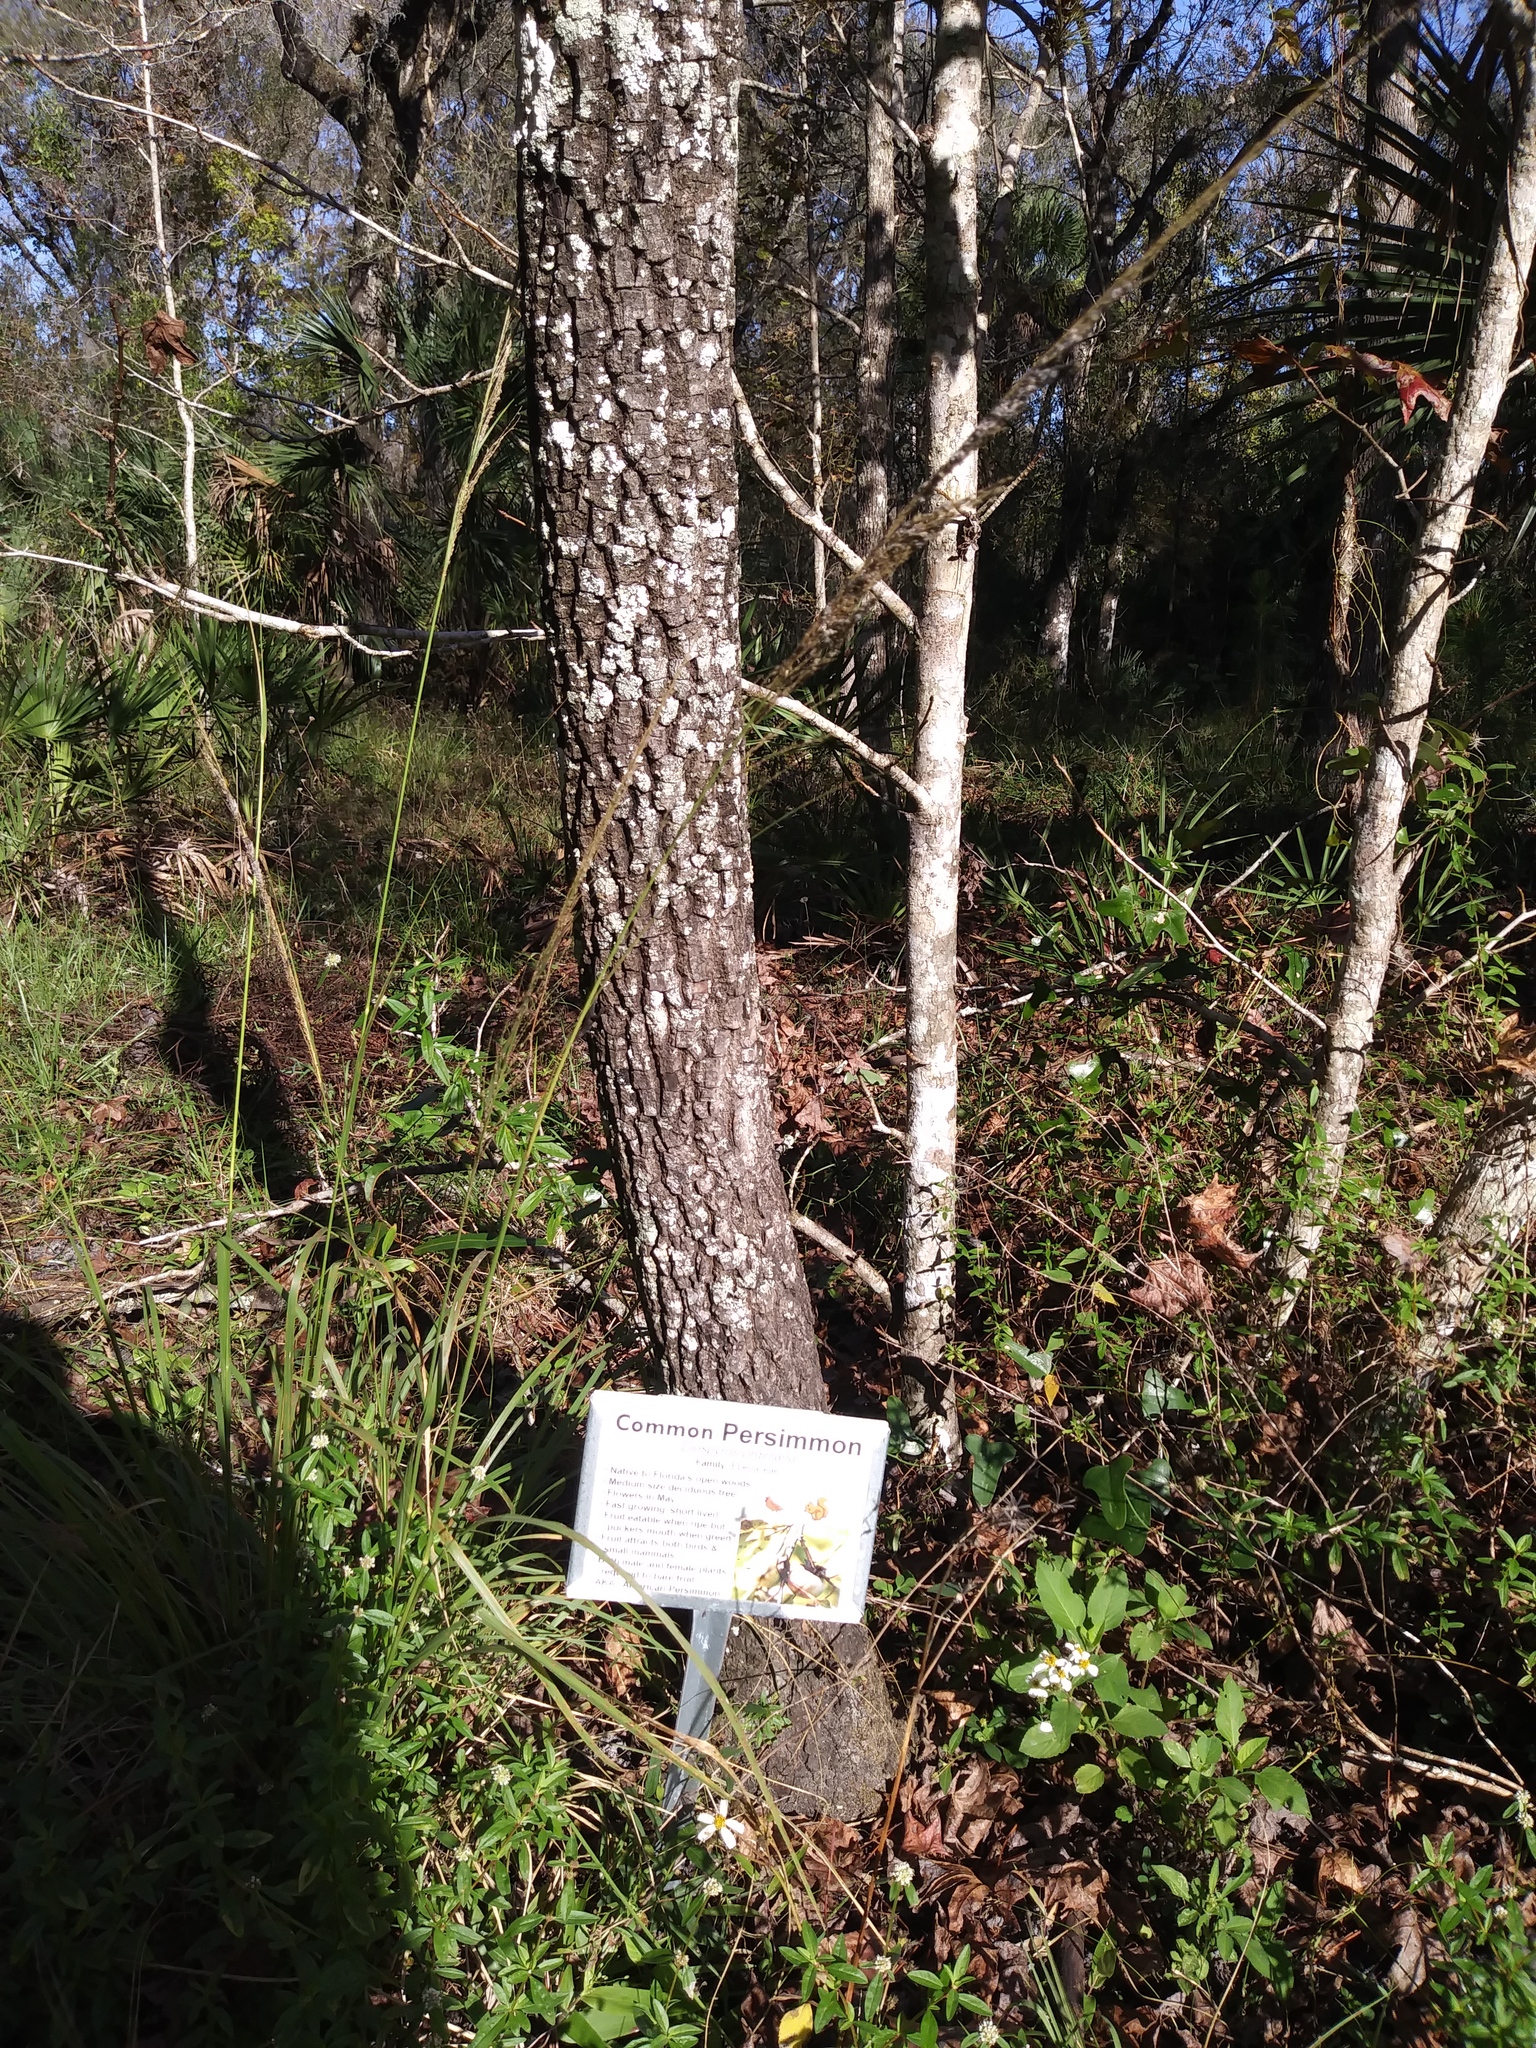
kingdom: Plantae
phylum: Tracheophyta
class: Magnoliopsida
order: Ericales
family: Ebenaceae
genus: Diospyros
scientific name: Diospyros virginiana
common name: Persimmon
